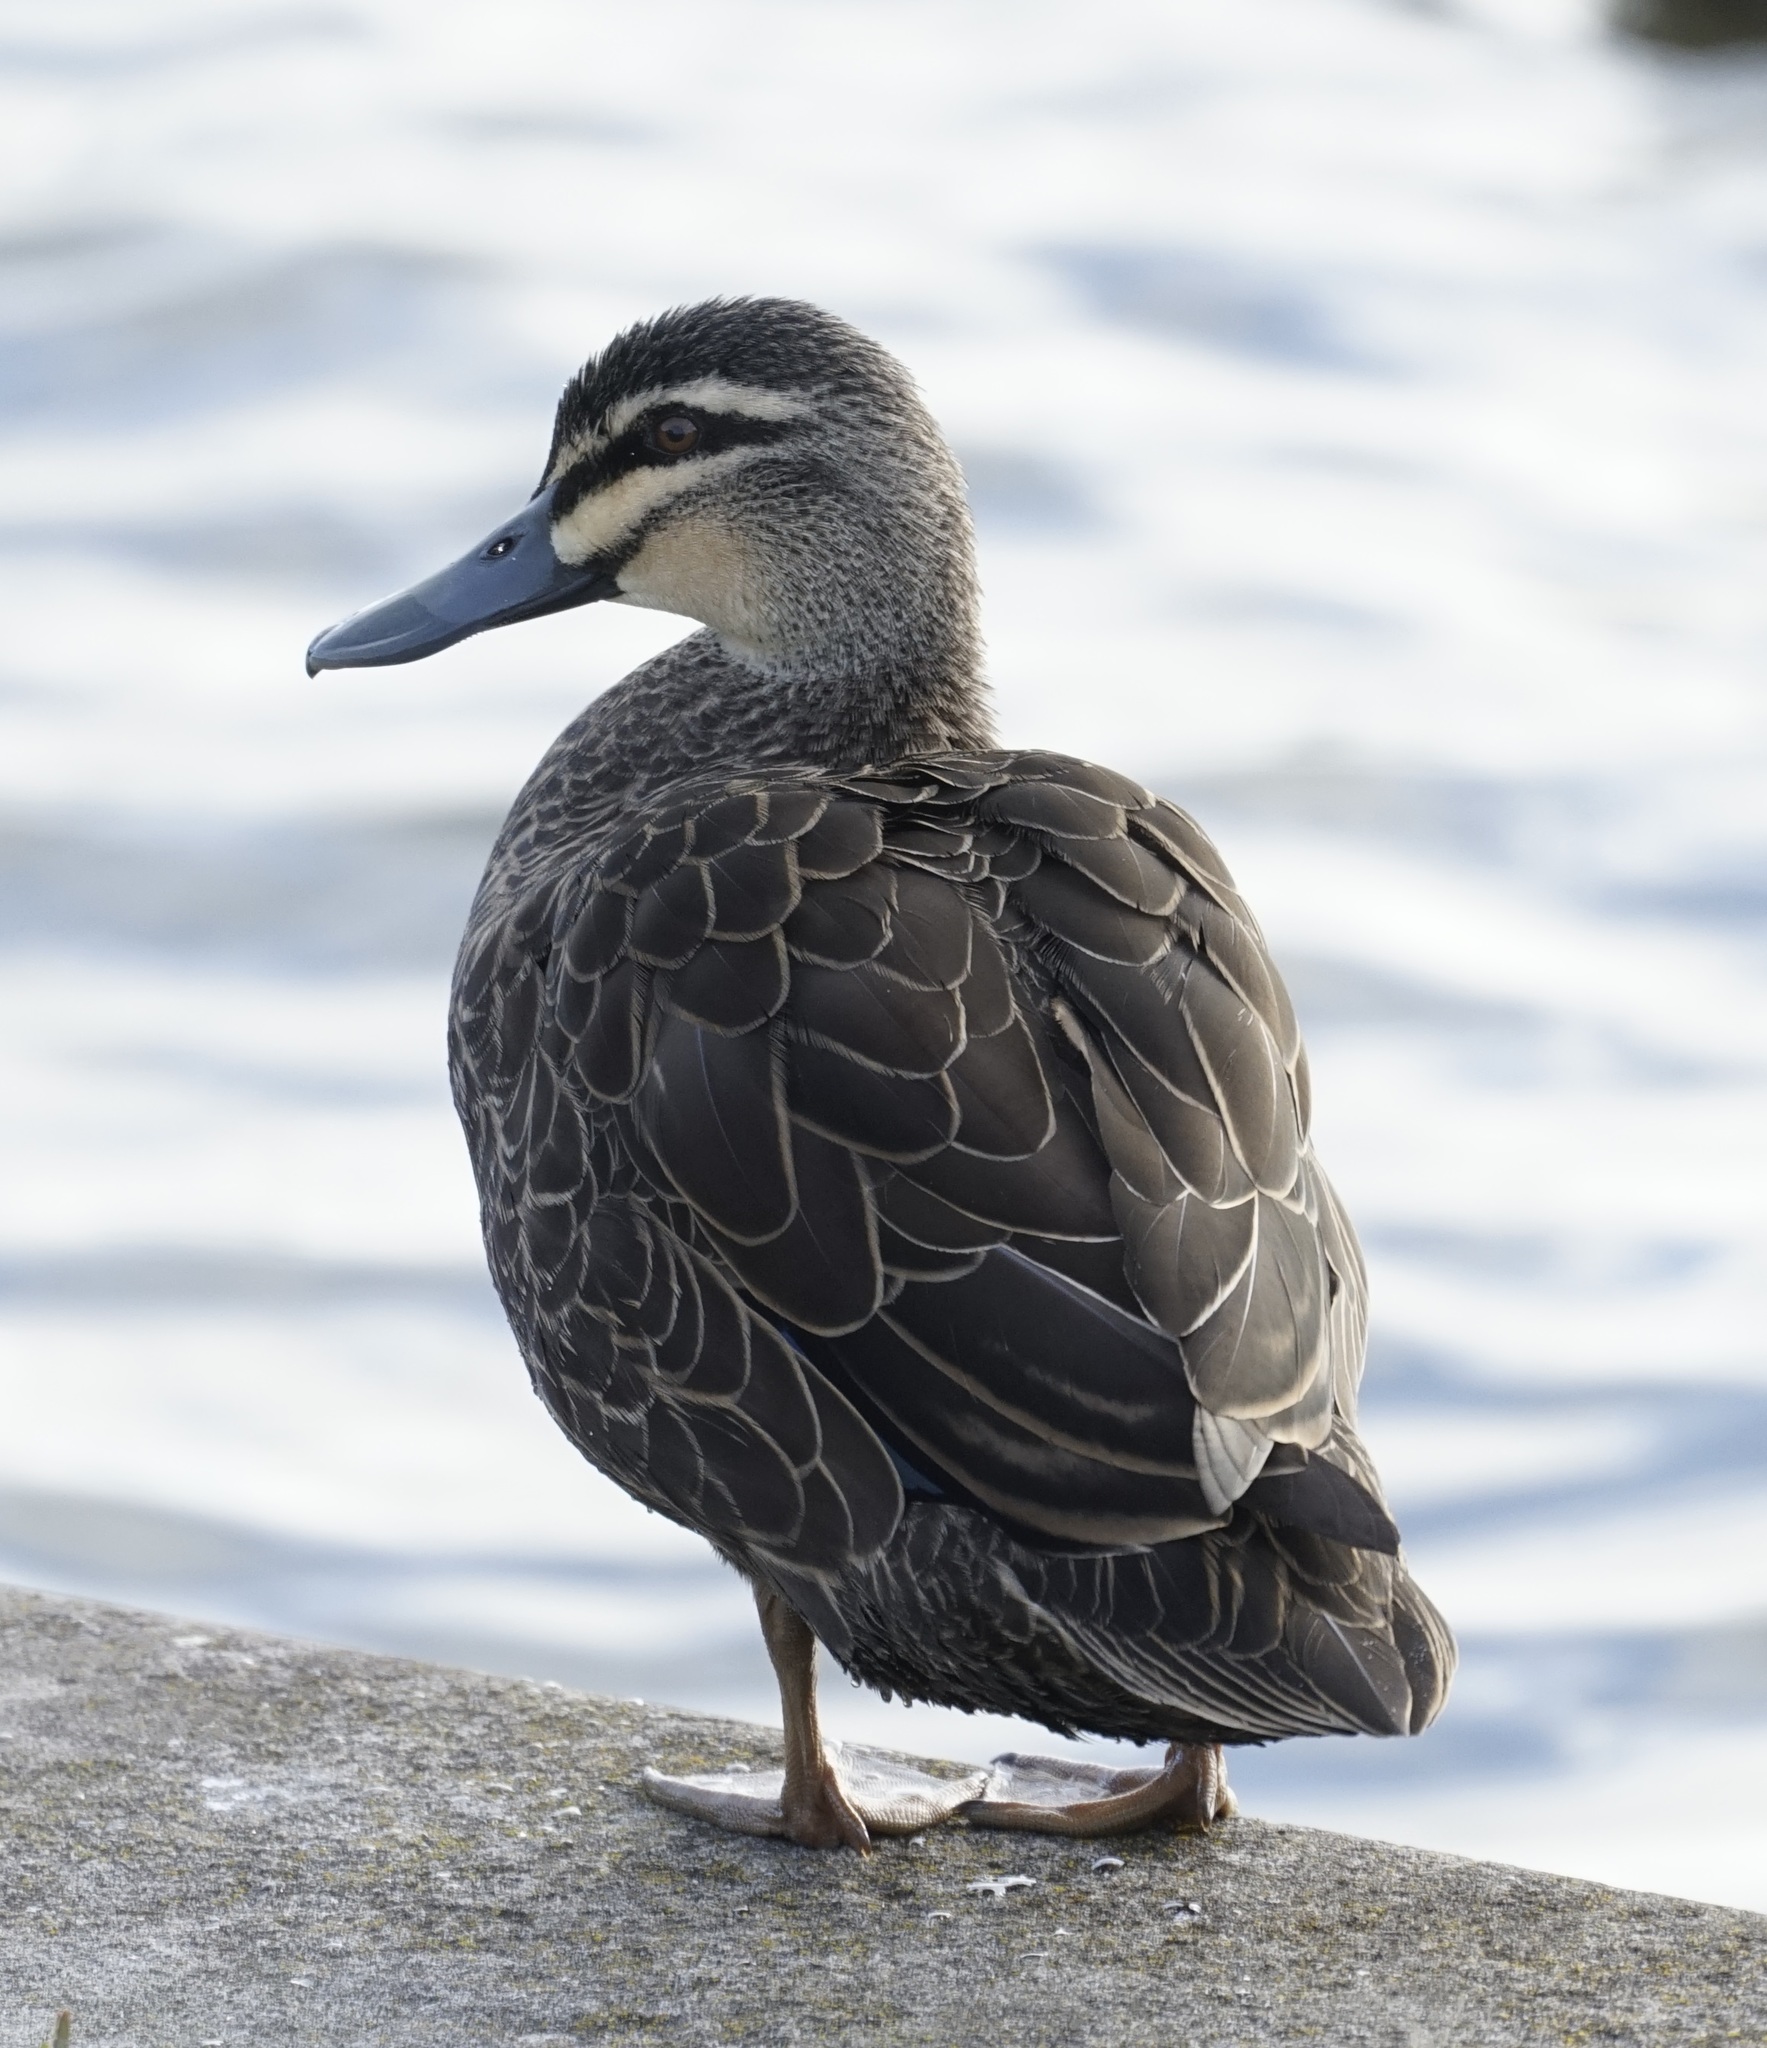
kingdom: Animalia
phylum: Chordata
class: Aves
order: Anseriformes
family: Anatidae
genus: Anas
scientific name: Anas superciliosa
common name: Pacific black duck
